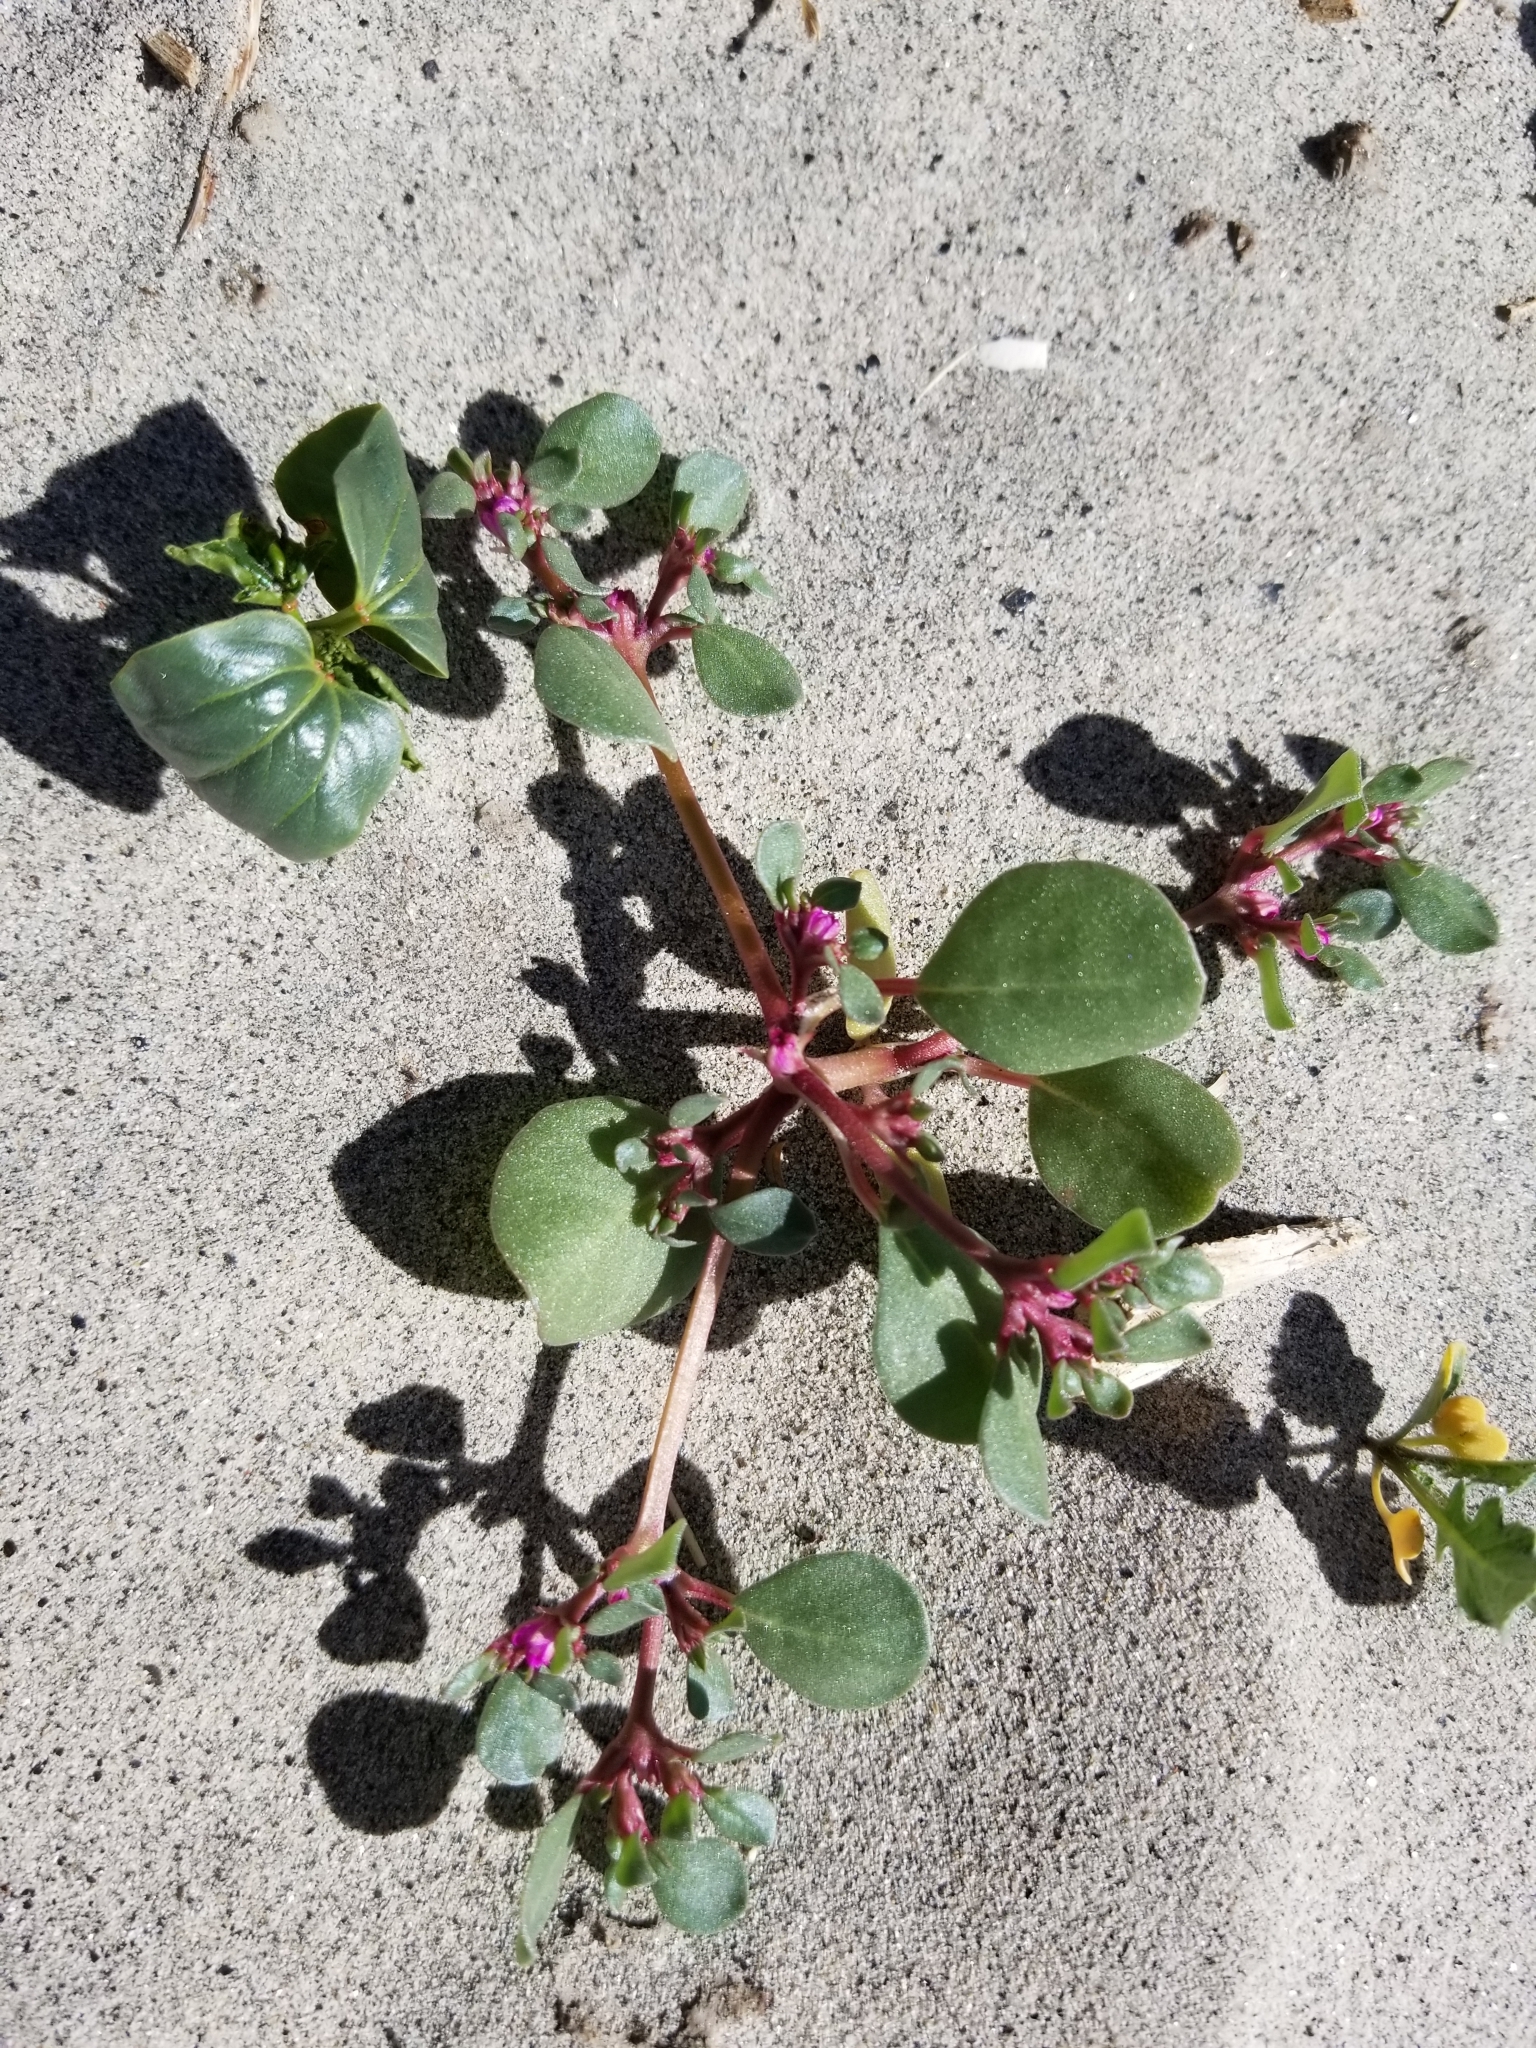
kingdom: Plantae
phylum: Tracheophyta
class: Magnoliopsida
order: Caryophyllales
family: Aizoaceae
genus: Trianthema
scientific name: Trianthema portulacastrum
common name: Desert horsepurslane
